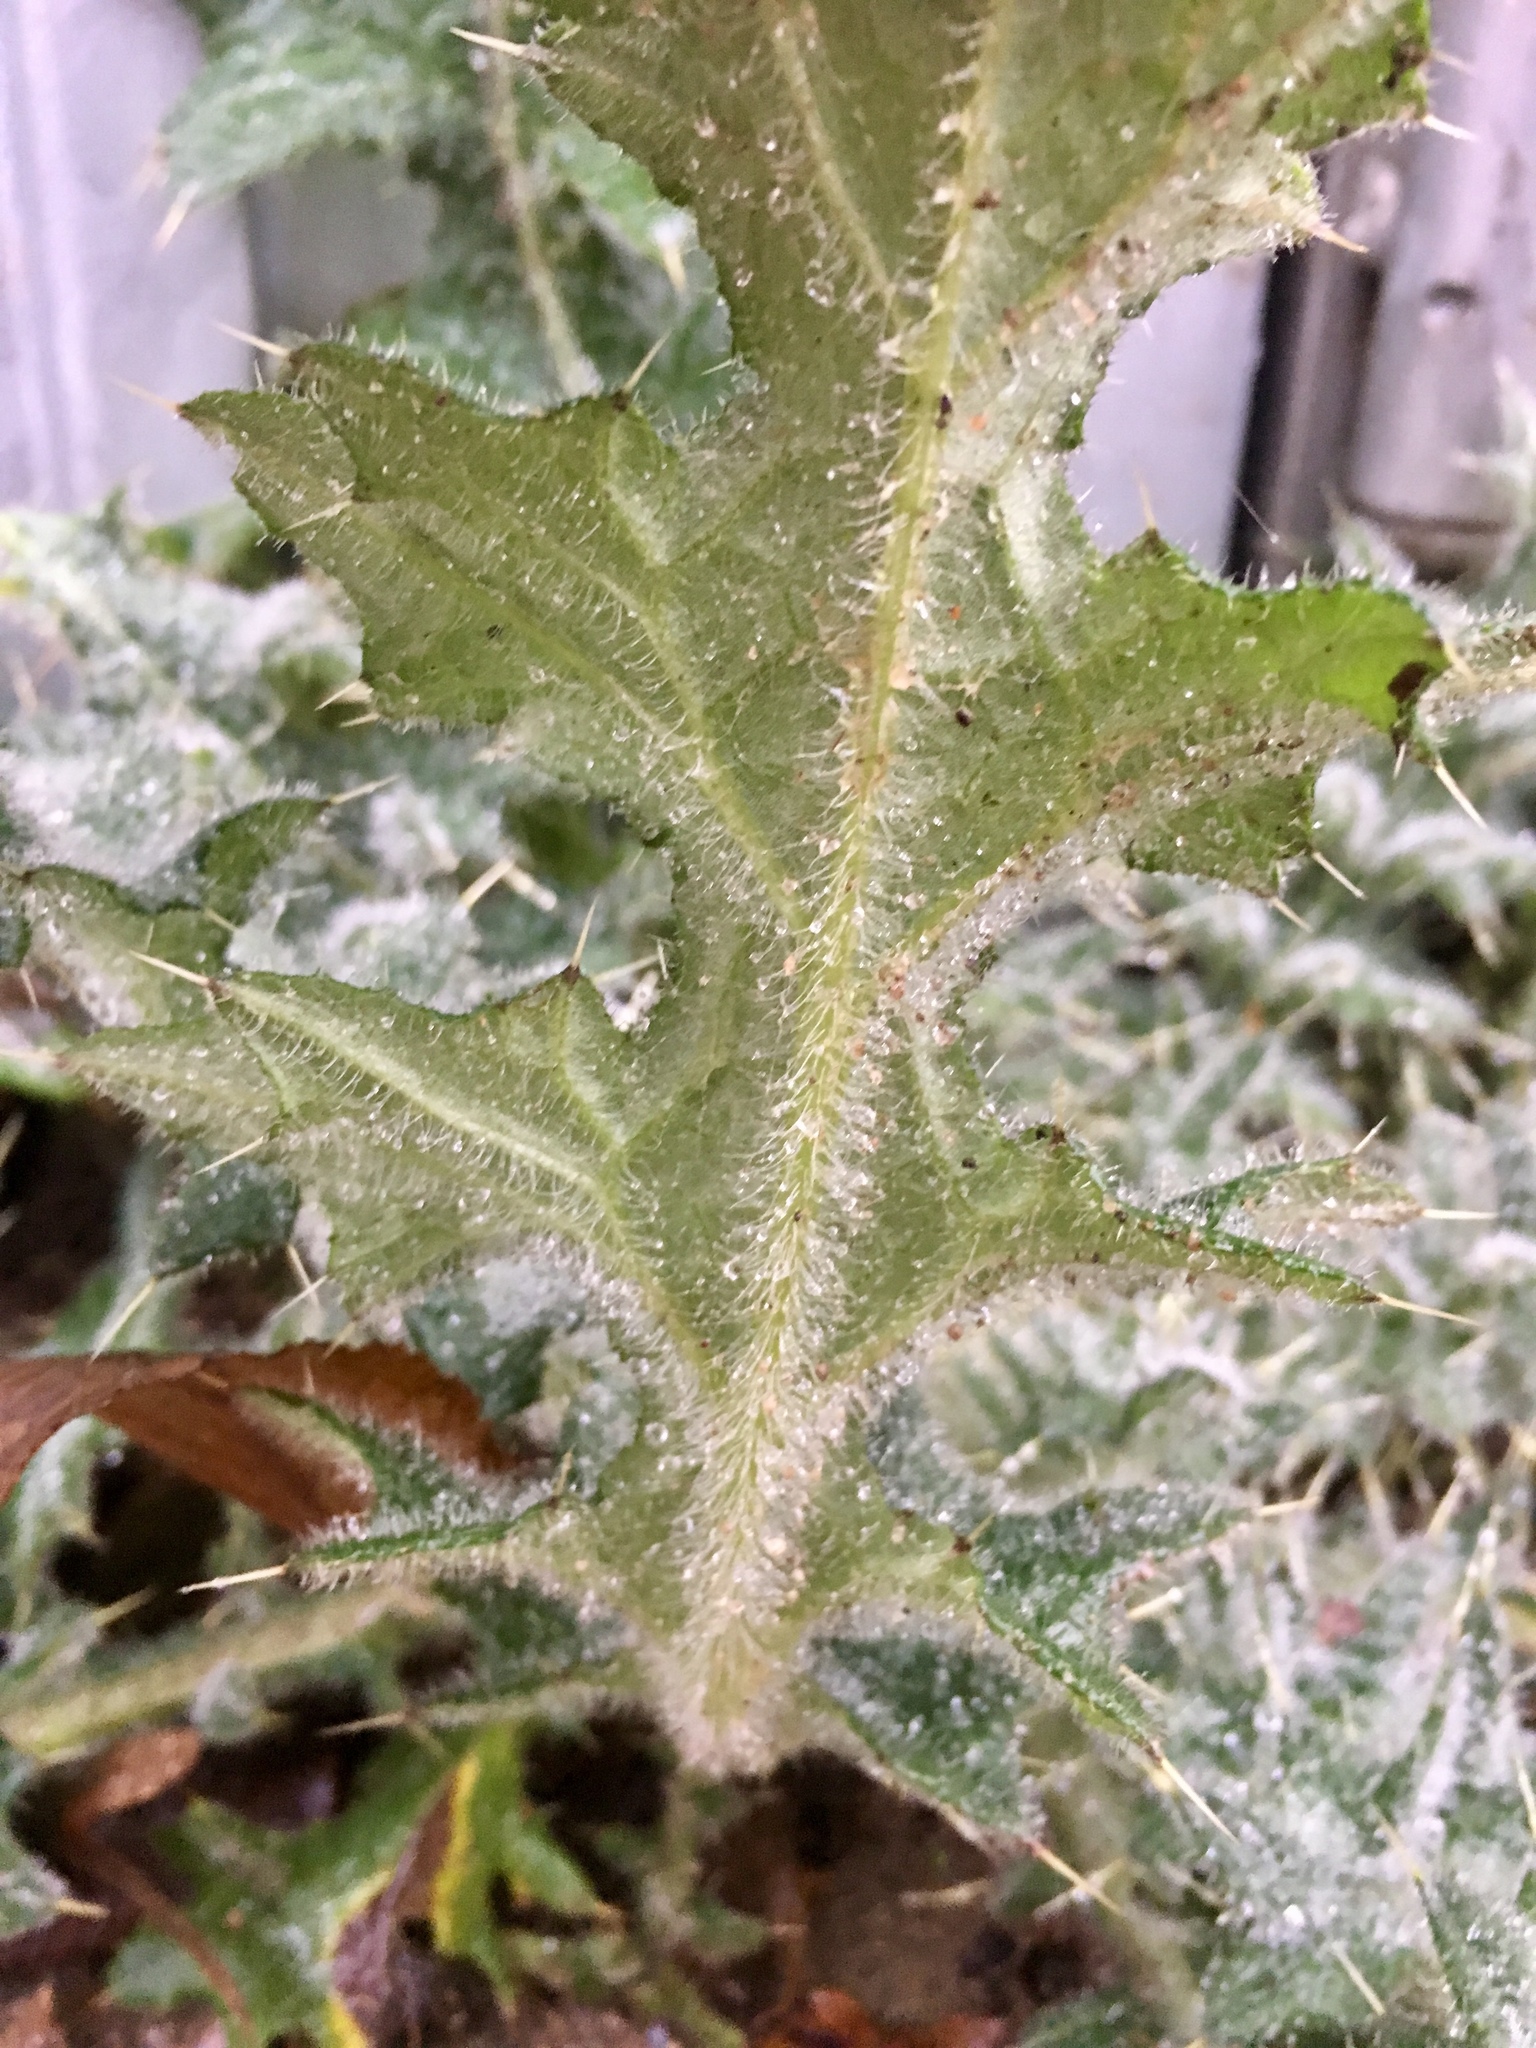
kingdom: Plantae
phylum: Tracheophyta
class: Magnoliopsida
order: Asterales
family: Asteraceae
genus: Cirsium
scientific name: Cirsium vulgare
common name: Bull thistle
